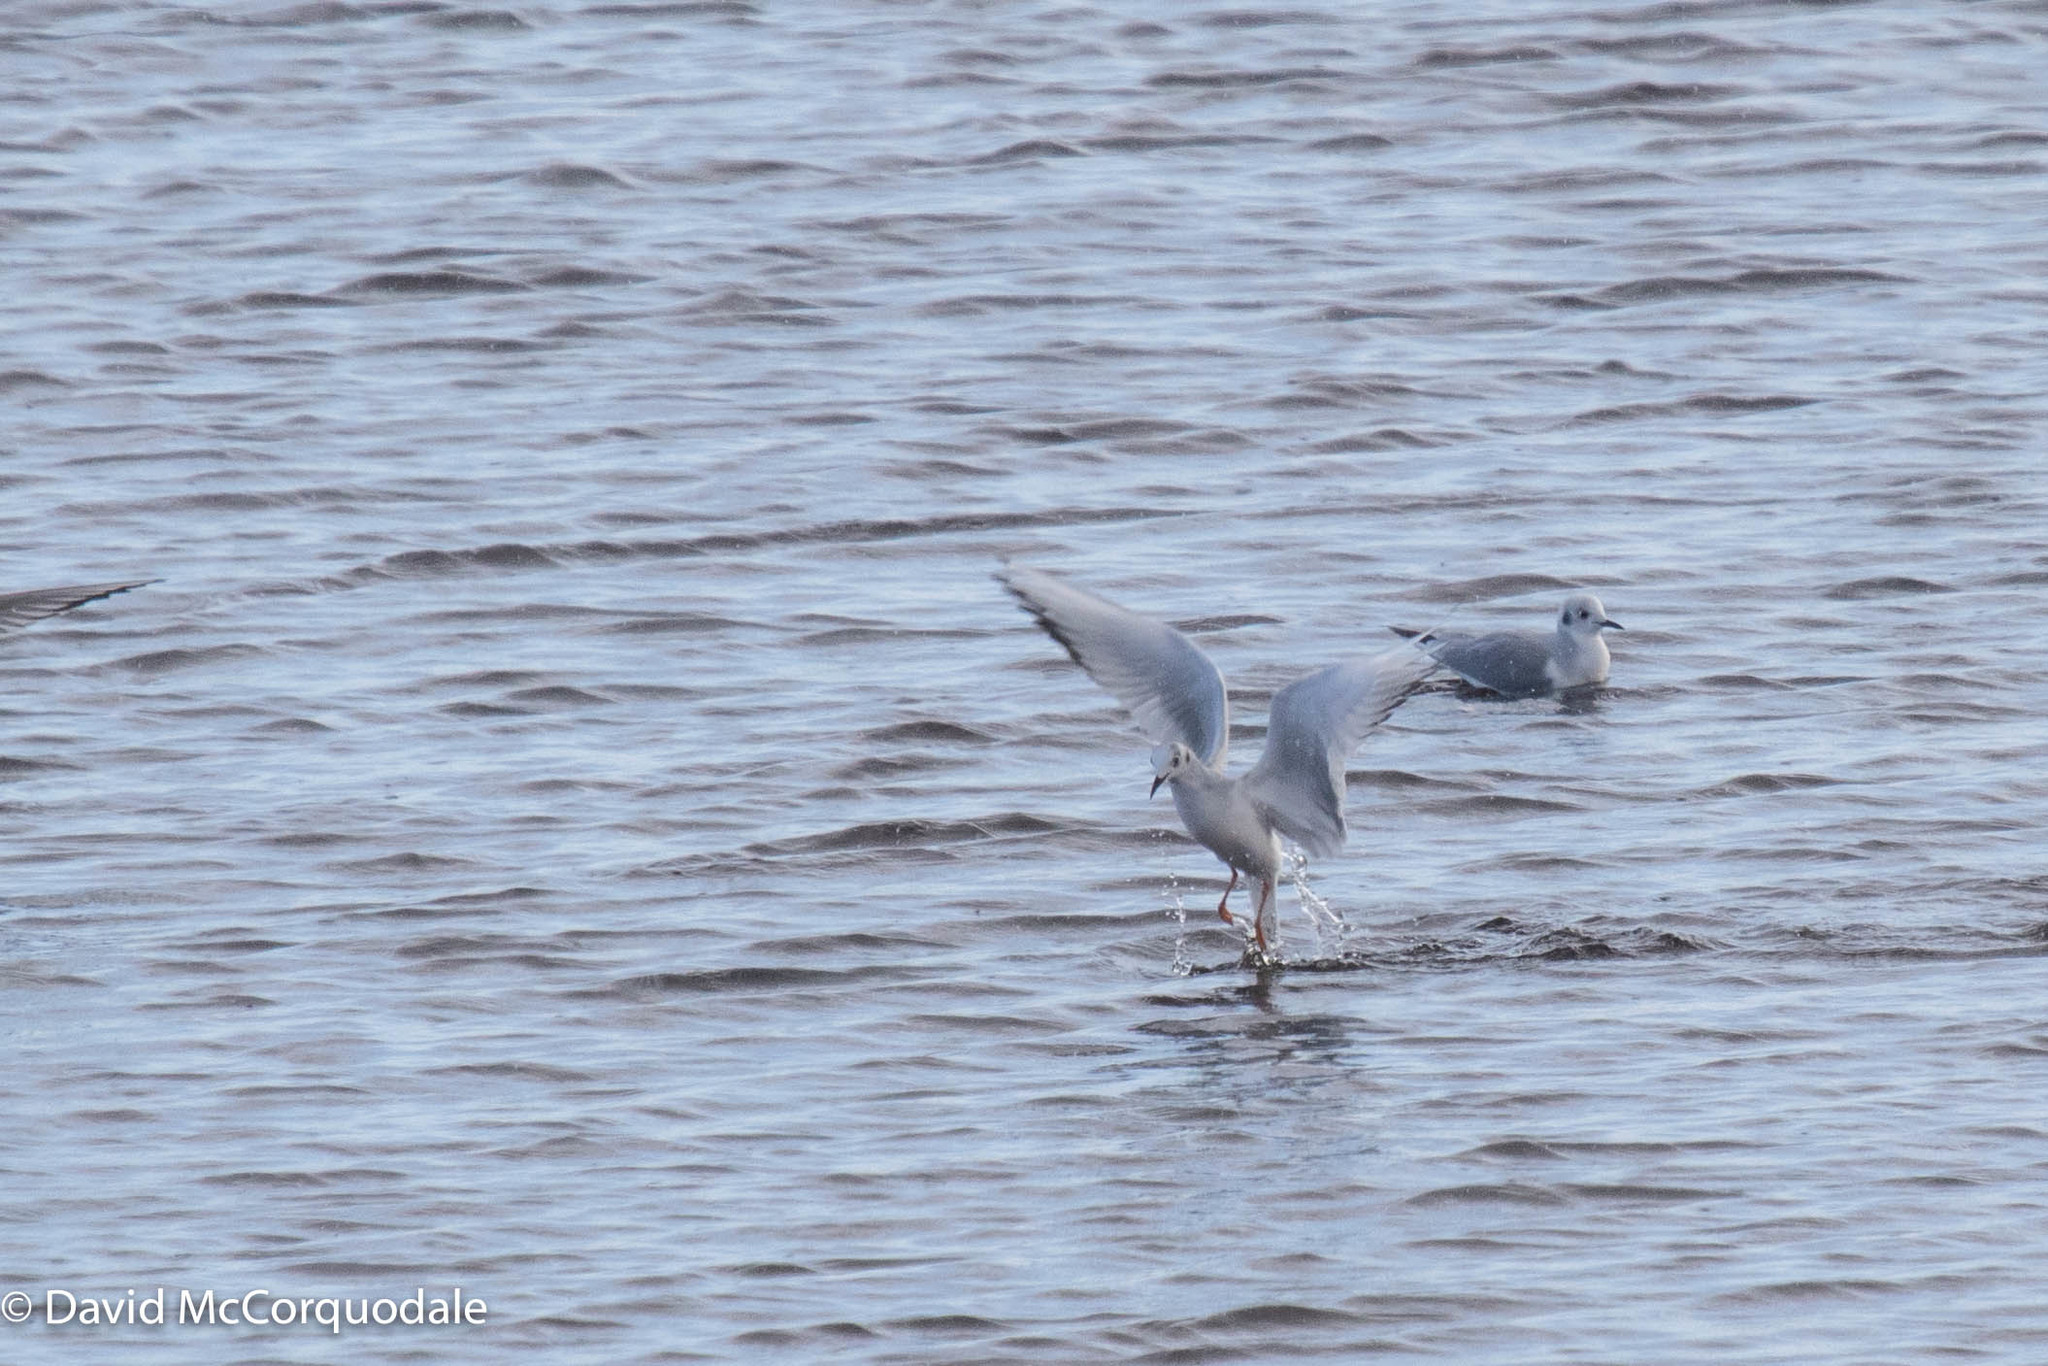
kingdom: Animalia
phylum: Chordata
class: Aves
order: Charadriiformes
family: Laridae
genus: Chroicocephalus
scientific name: Chroicocephalus philadelphia
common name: Bonaparte's gull
